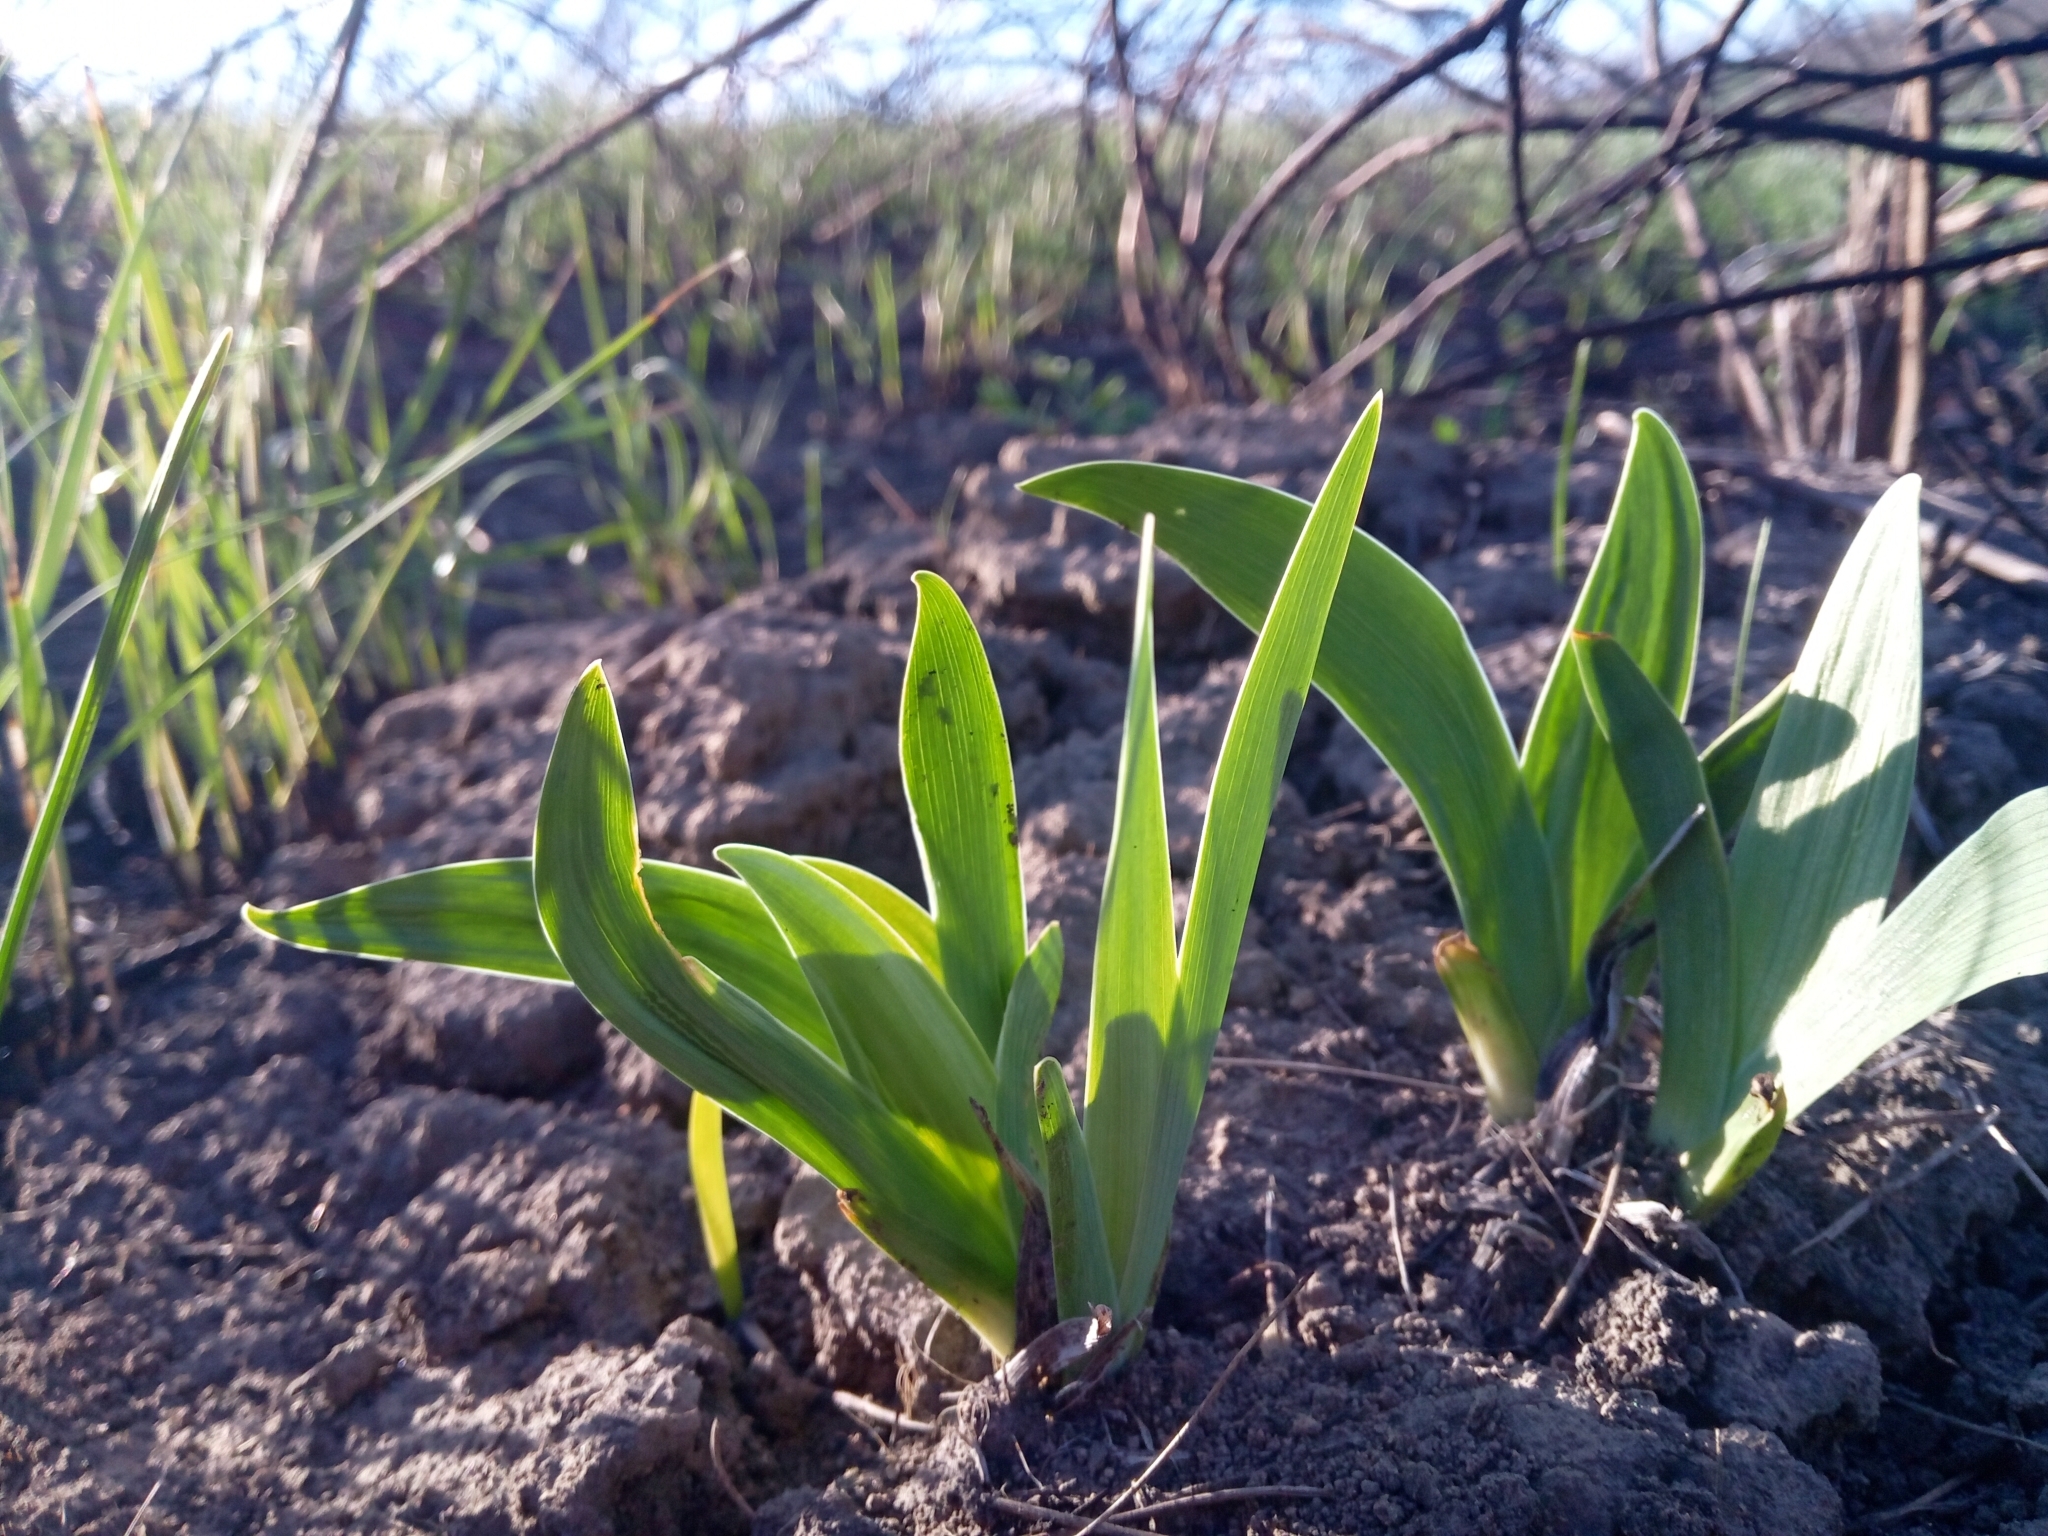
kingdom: Plantae
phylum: Tracheophyta
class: Liliopsida
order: Asparagales
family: Iridaceae
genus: Iris
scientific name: Iris pumila
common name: Dwarf iris
